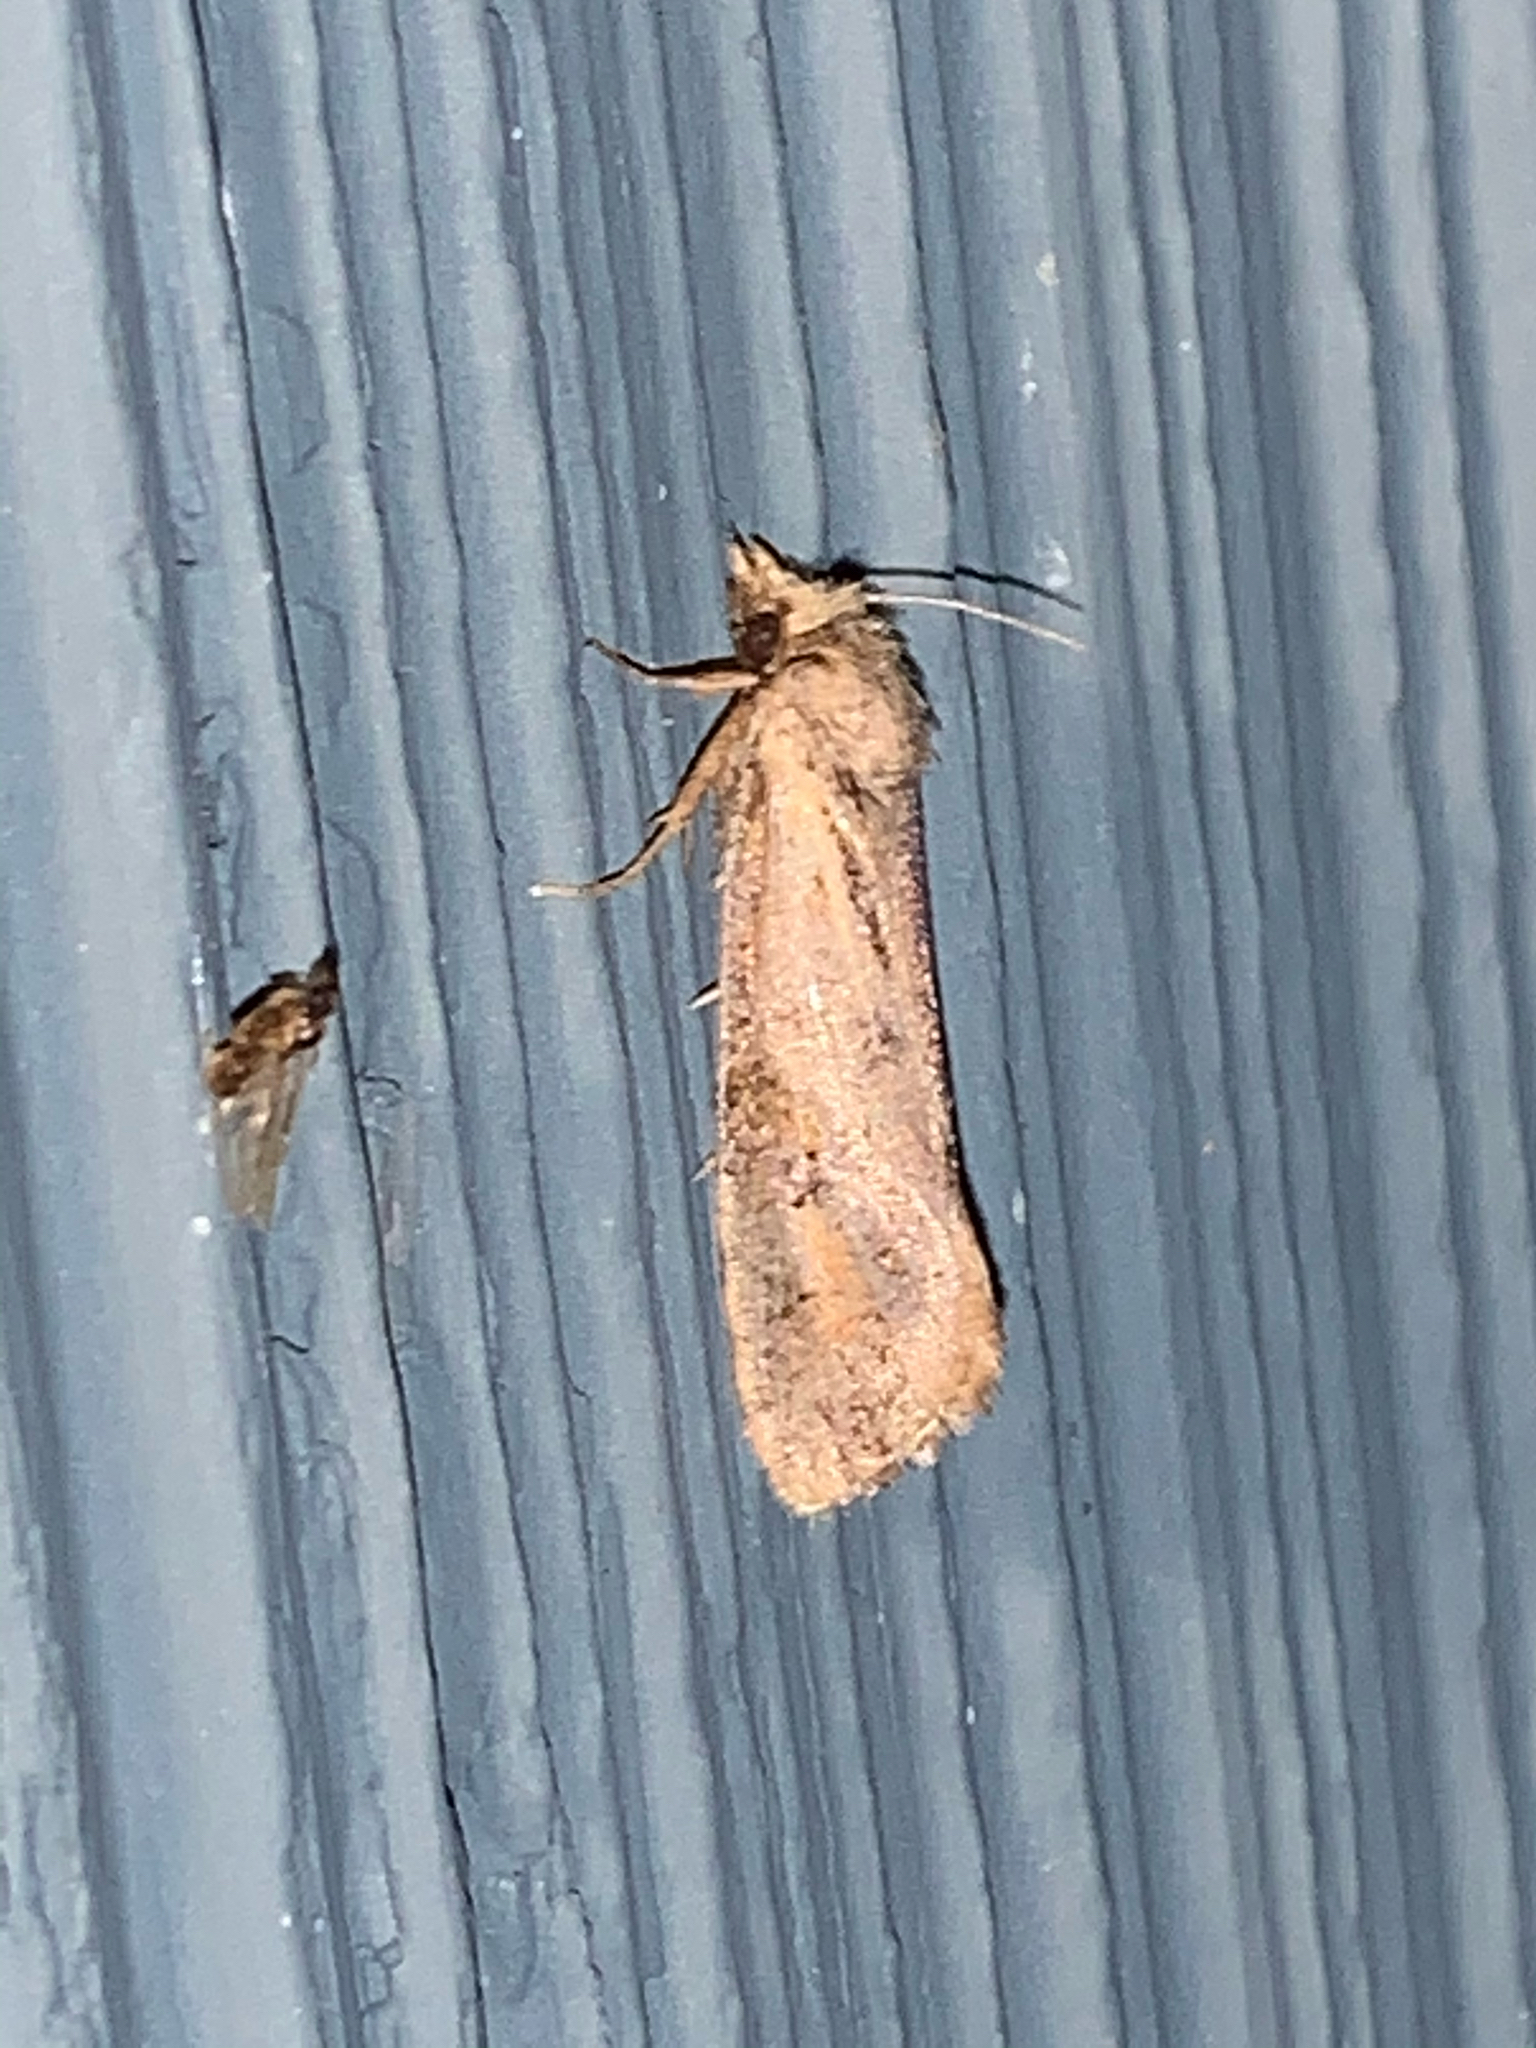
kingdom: Animalia
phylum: Arthropoda
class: Insecta
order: Lepidoptera
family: Tineidae
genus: Acrolophus
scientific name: Acrolophus popeanella
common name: Clemens' grass tubeworm moth
